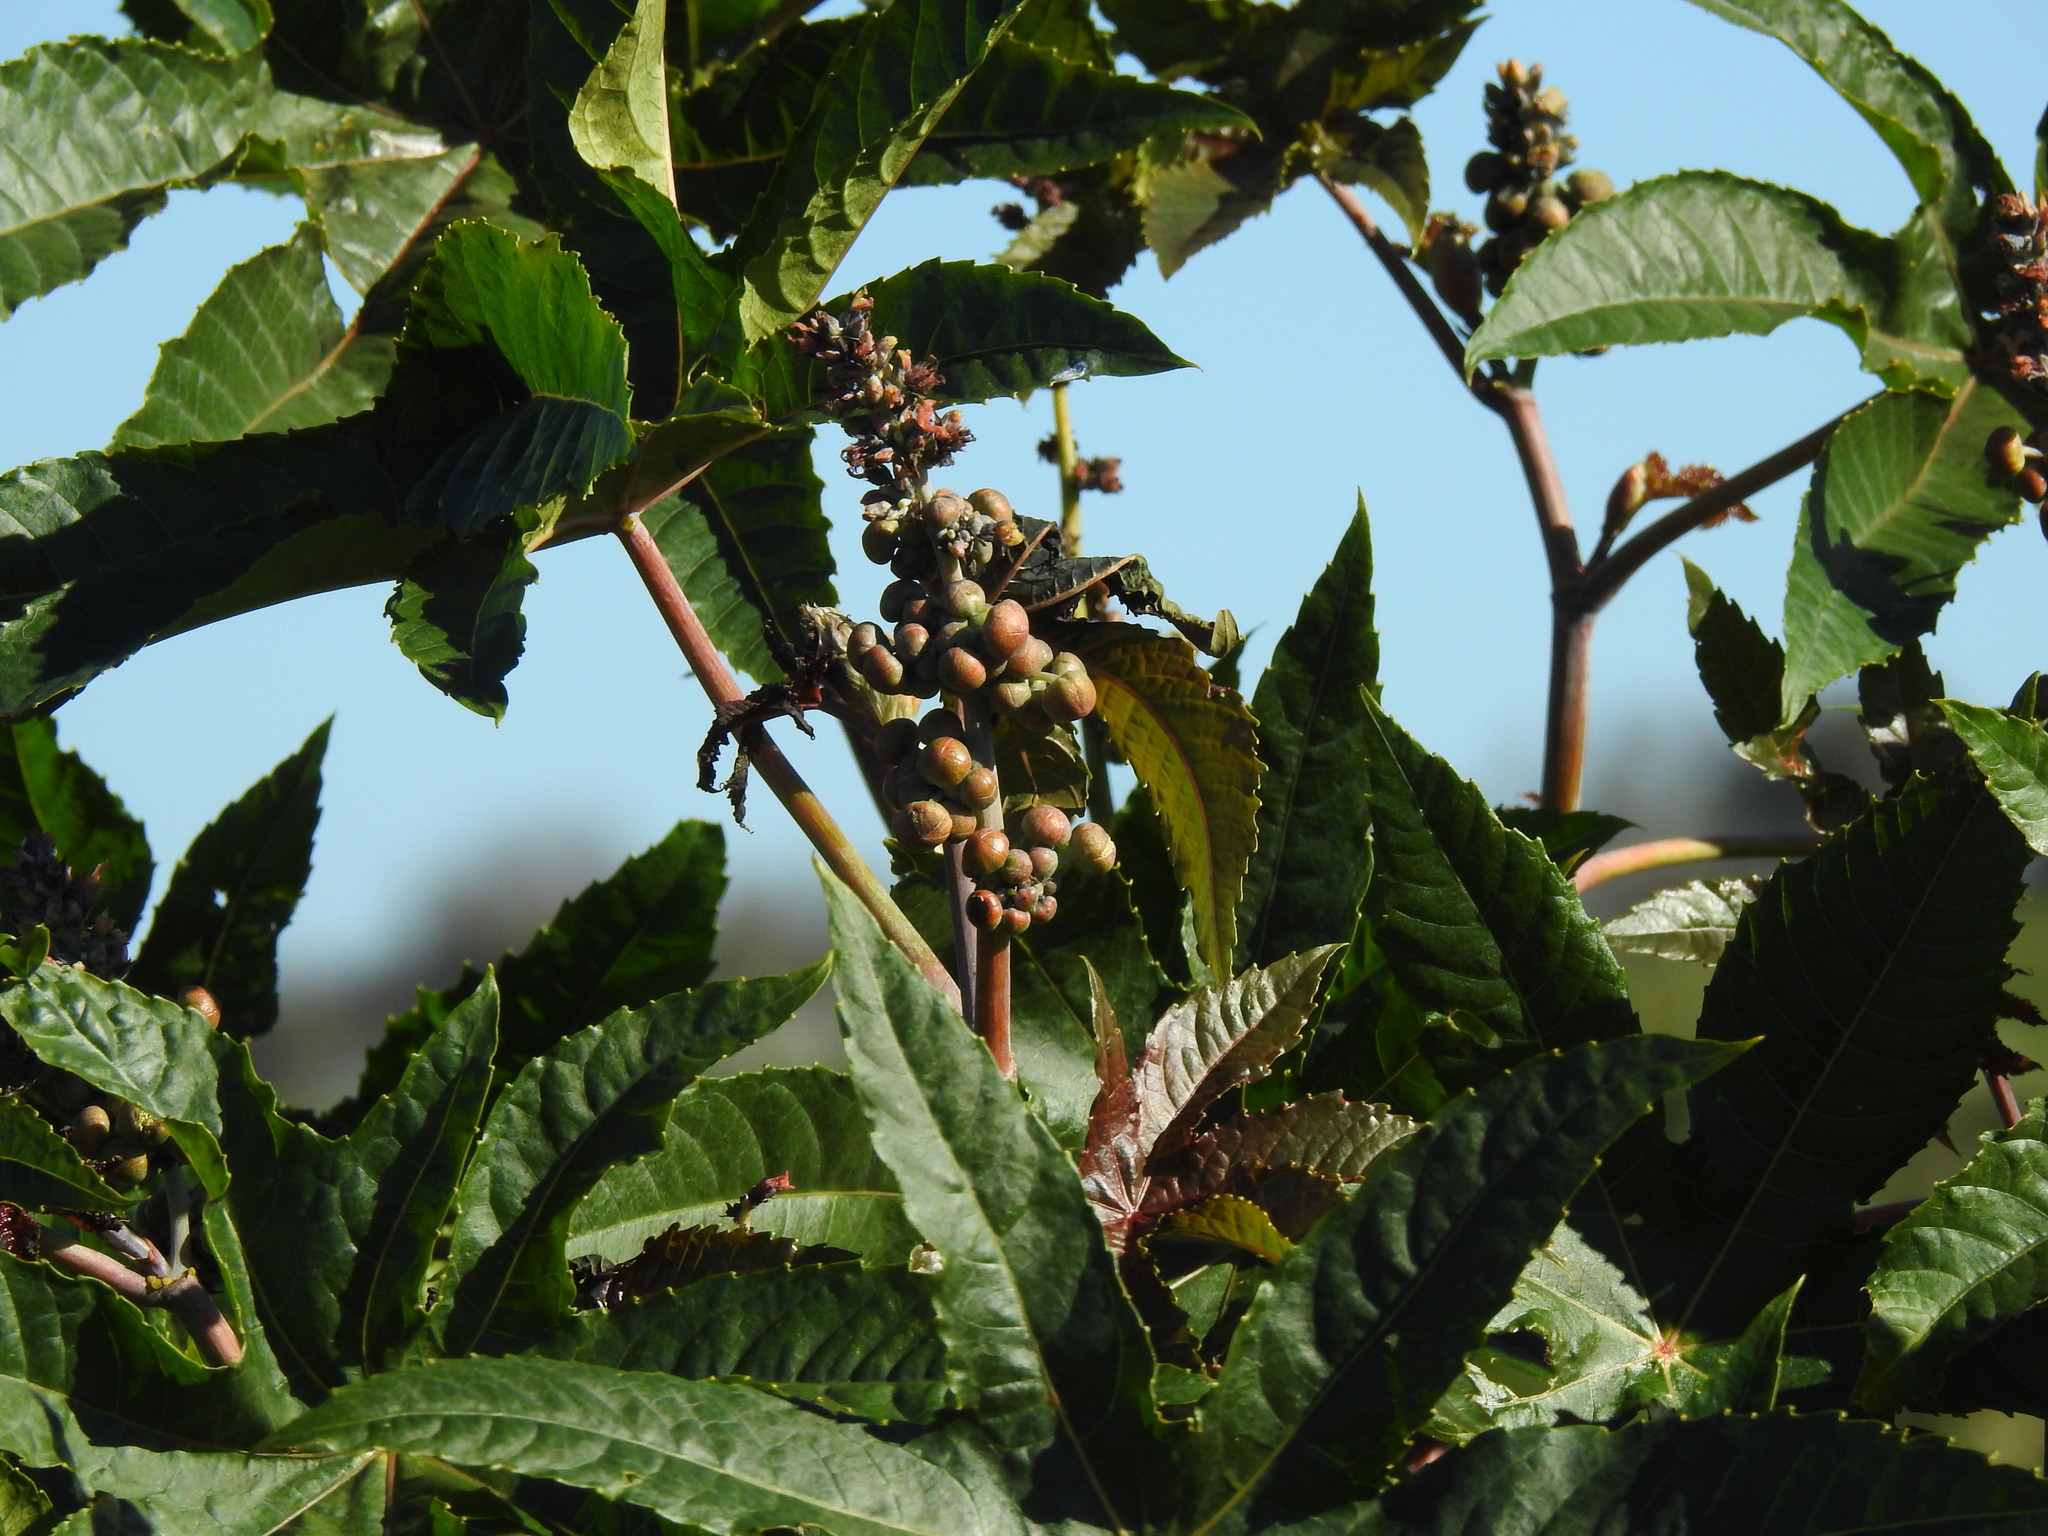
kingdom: Plantae
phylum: Tracheophyta
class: Magnoliopsida
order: Malpighiales
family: Euphorbiaceae
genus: Ricinus
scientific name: Ricinus communis
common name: Castor-oil-plant
